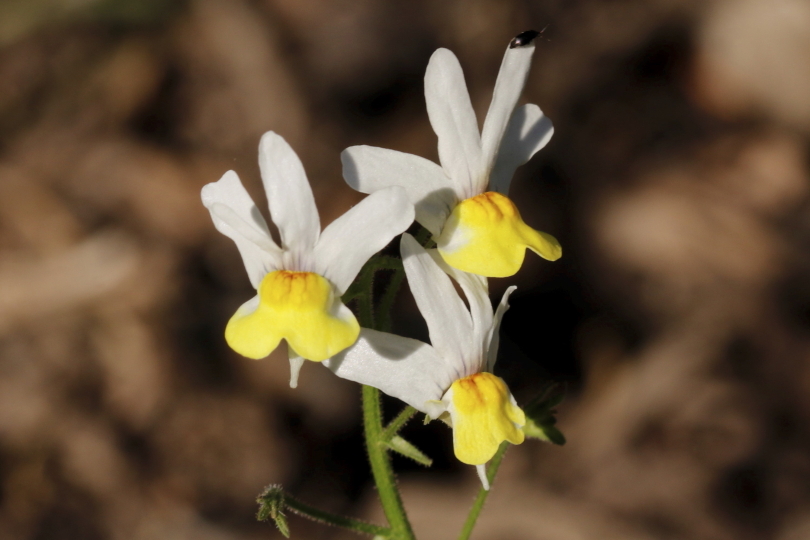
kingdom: Plantae
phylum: Tracheophyta
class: Magnoliopsida
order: Lamiales
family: Scrophulariaceae
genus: Nemesia
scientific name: Nemesia ligulata
